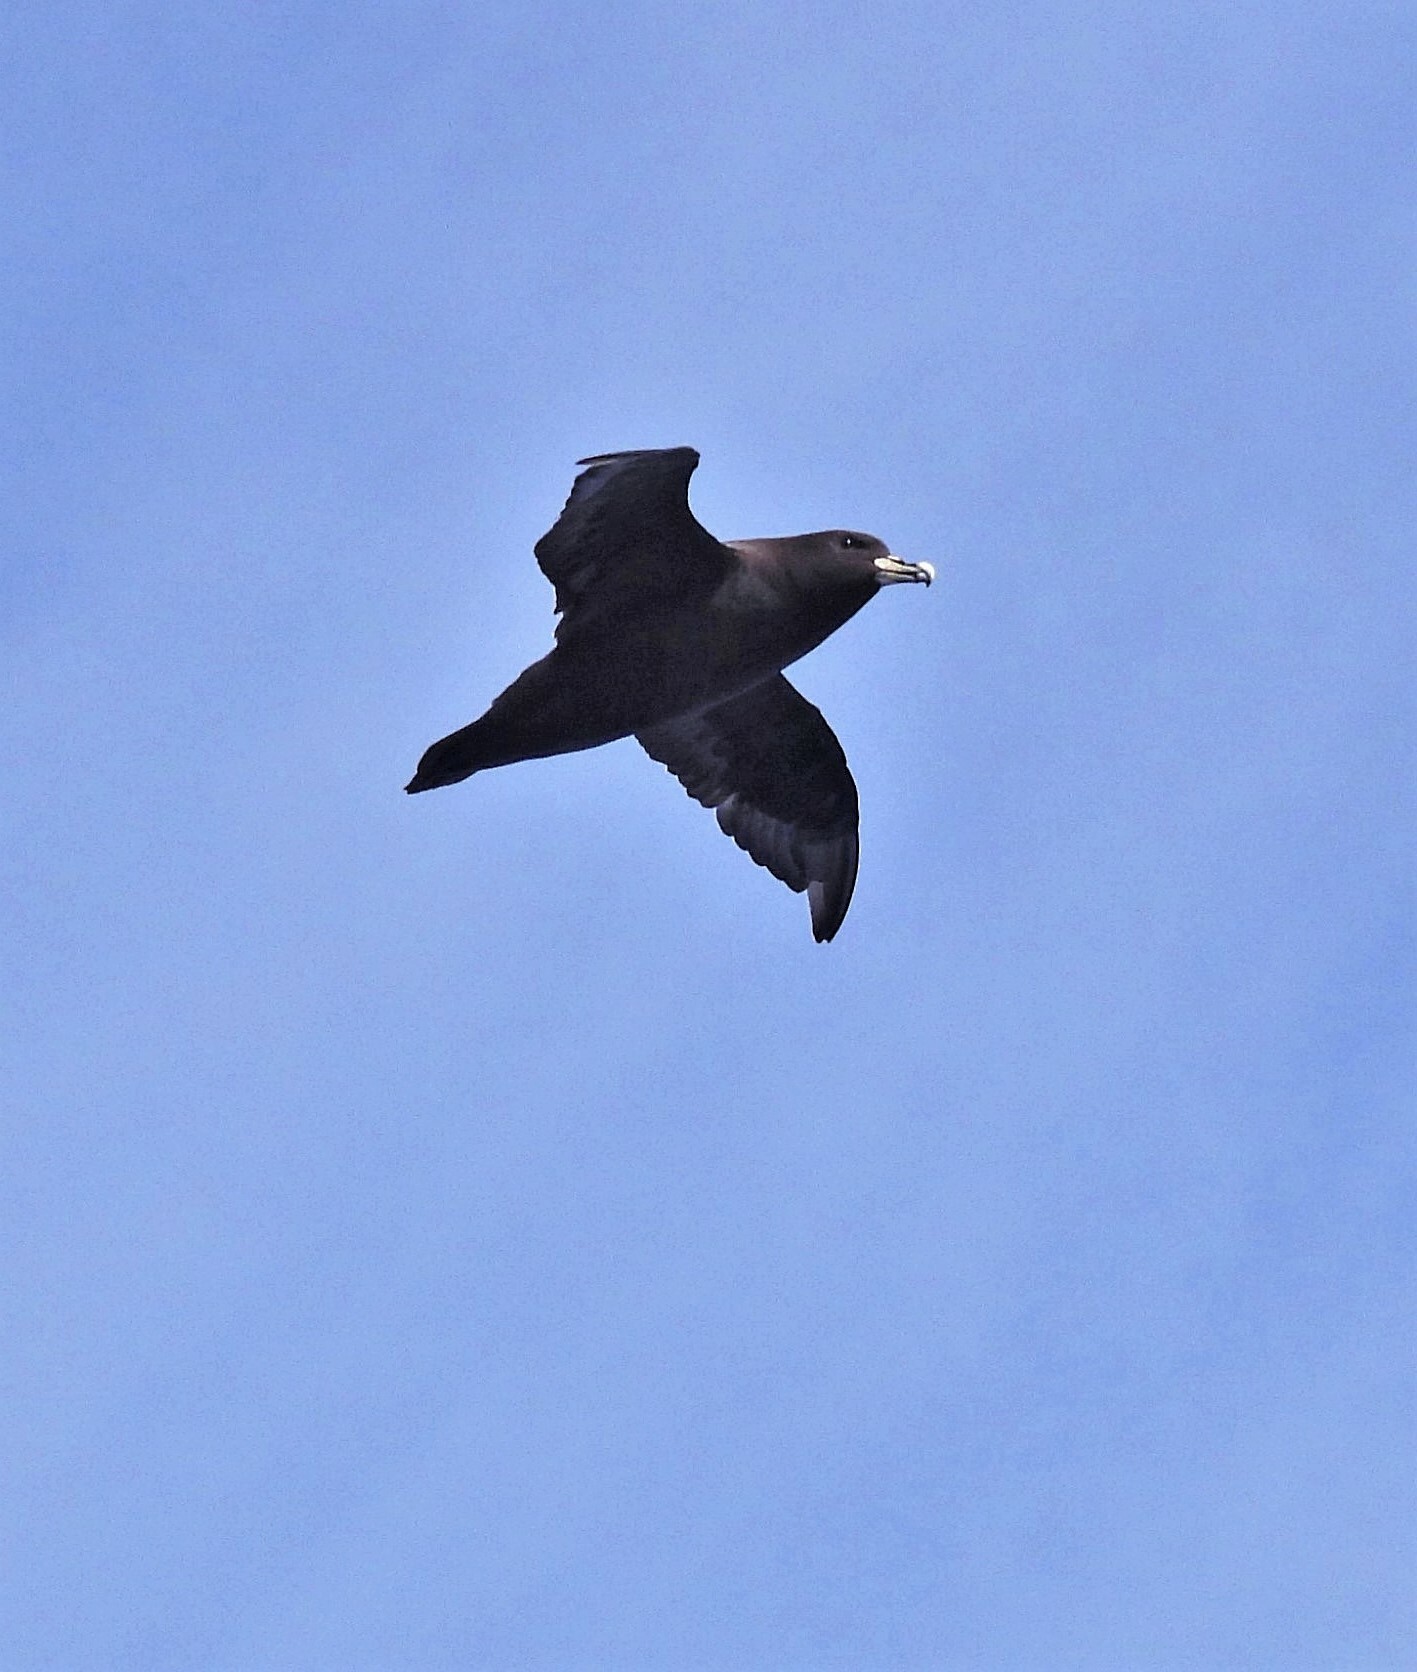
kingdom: Animalia
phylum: Chordata
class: Aves
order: Procellariiformes
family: Procellariidae
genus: Procellaria
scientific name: Procellaria aequinoctialis
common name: White-chinned petrel
